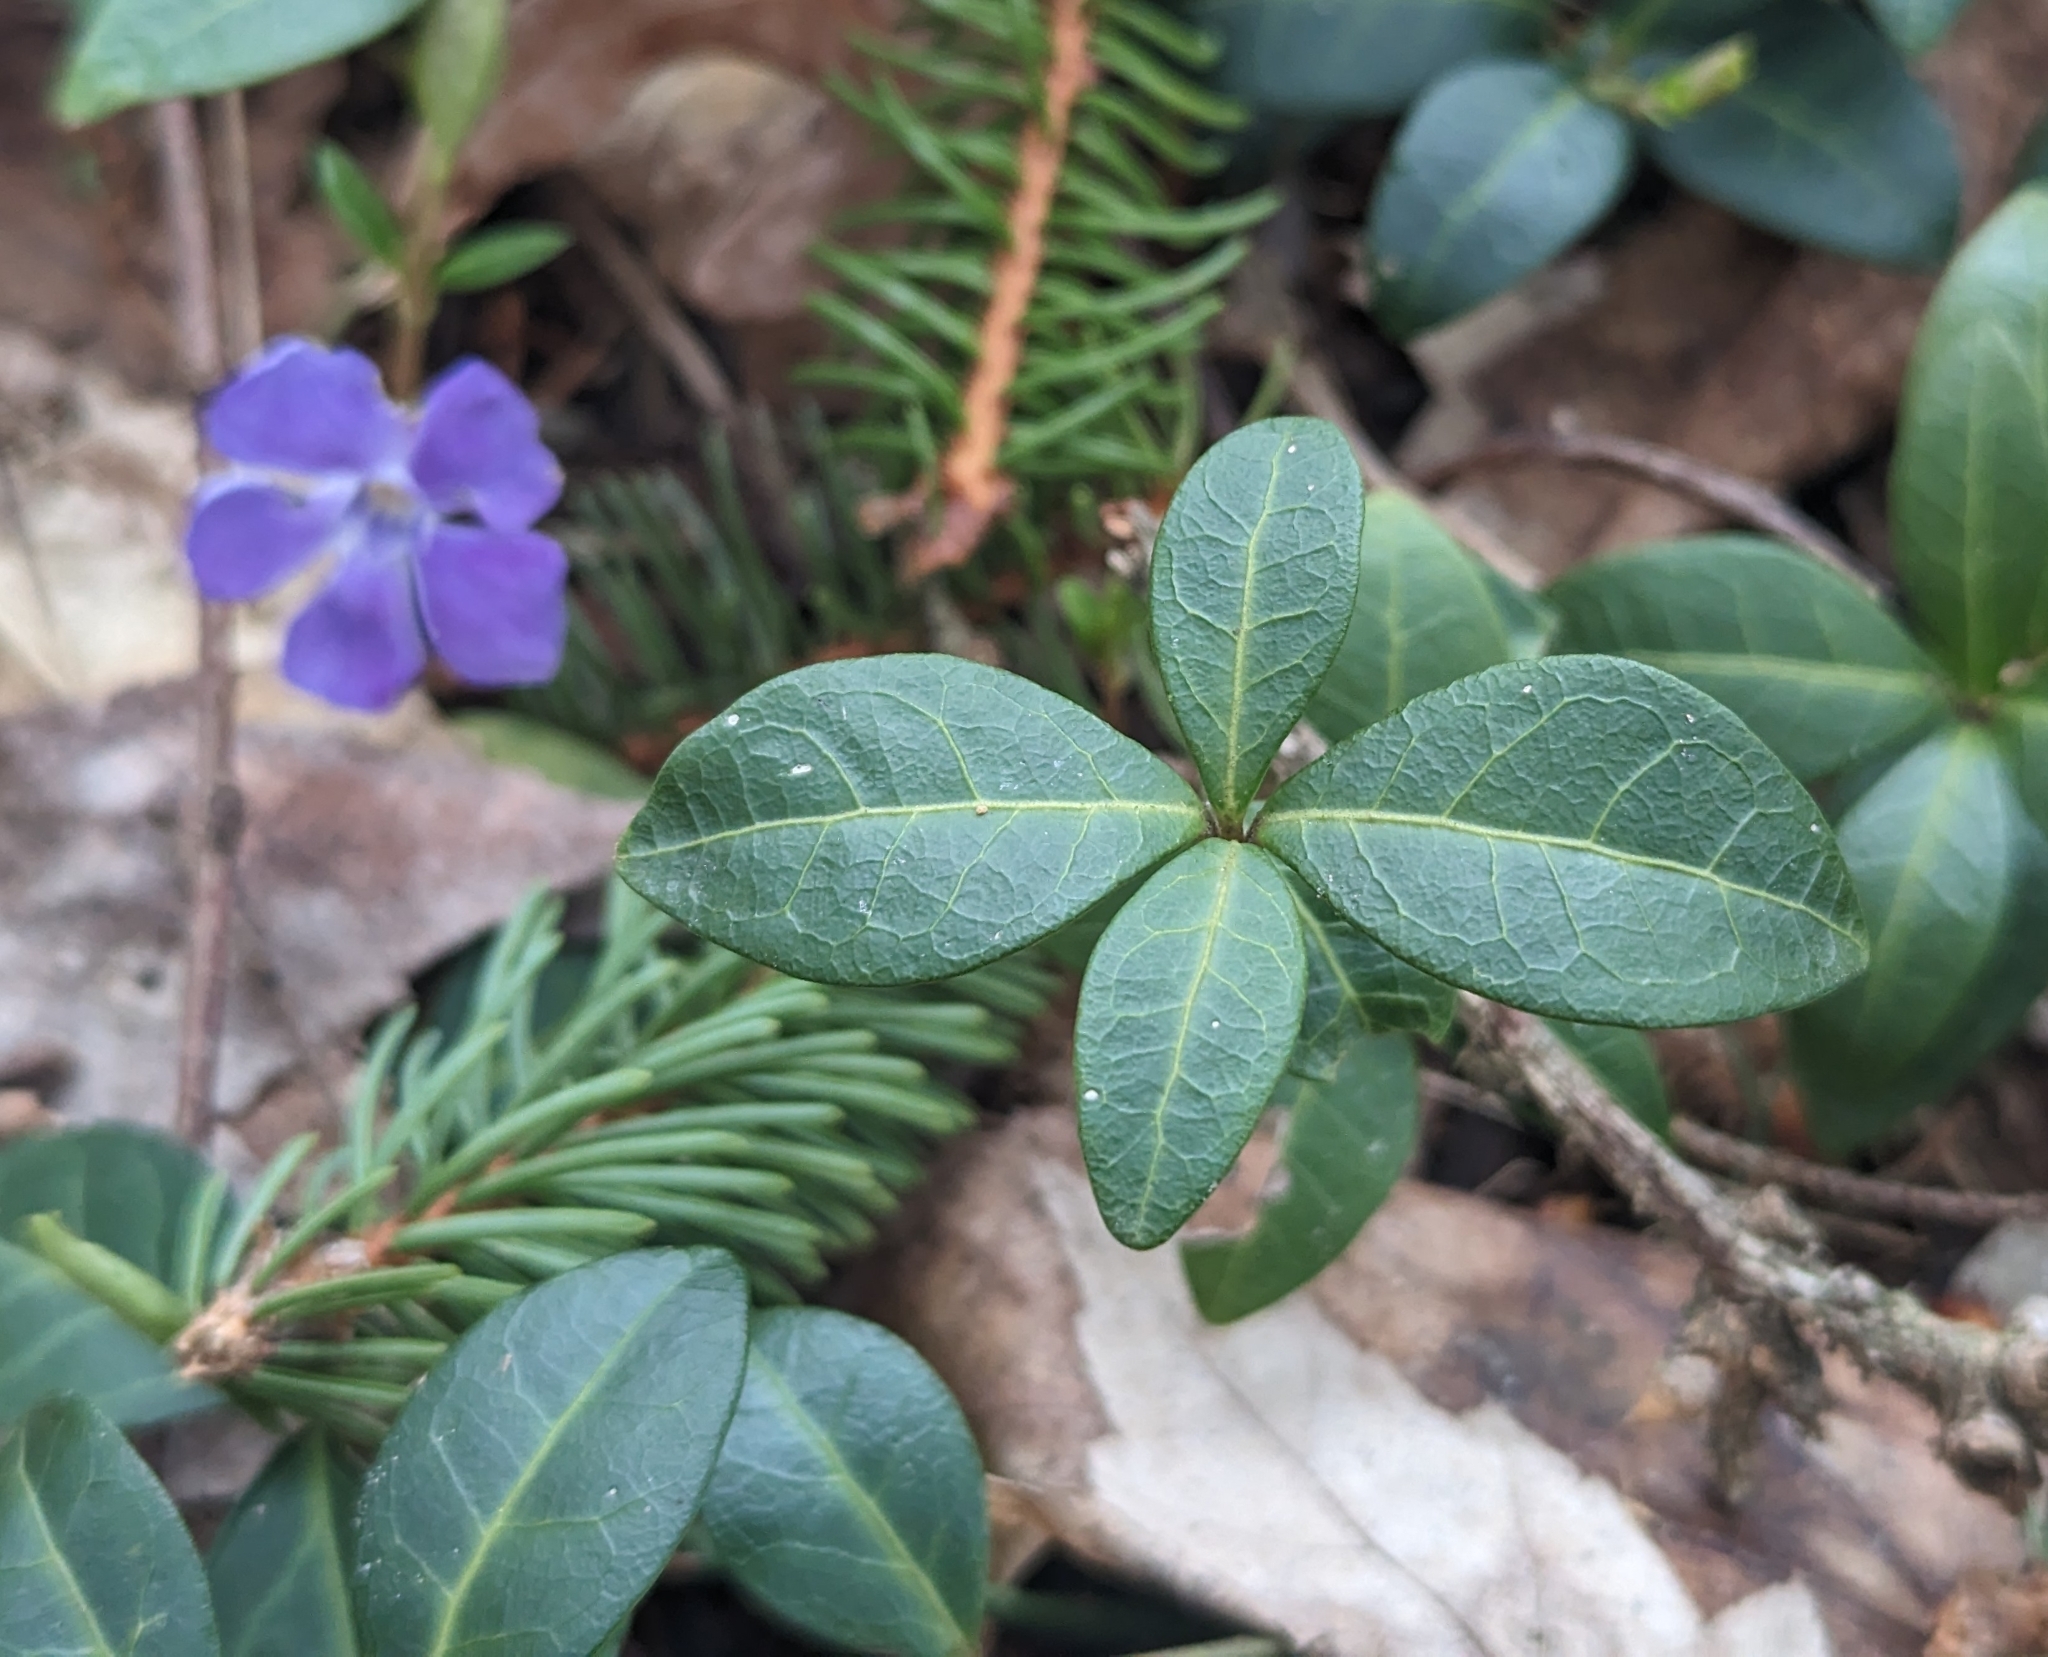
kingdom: Plantae
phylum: Tracheophyta
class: Magnoliopsida
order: Gentianales
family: Apocynaceae
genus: Vinca
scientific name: Vinca minor
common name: Lesser periwinkle
